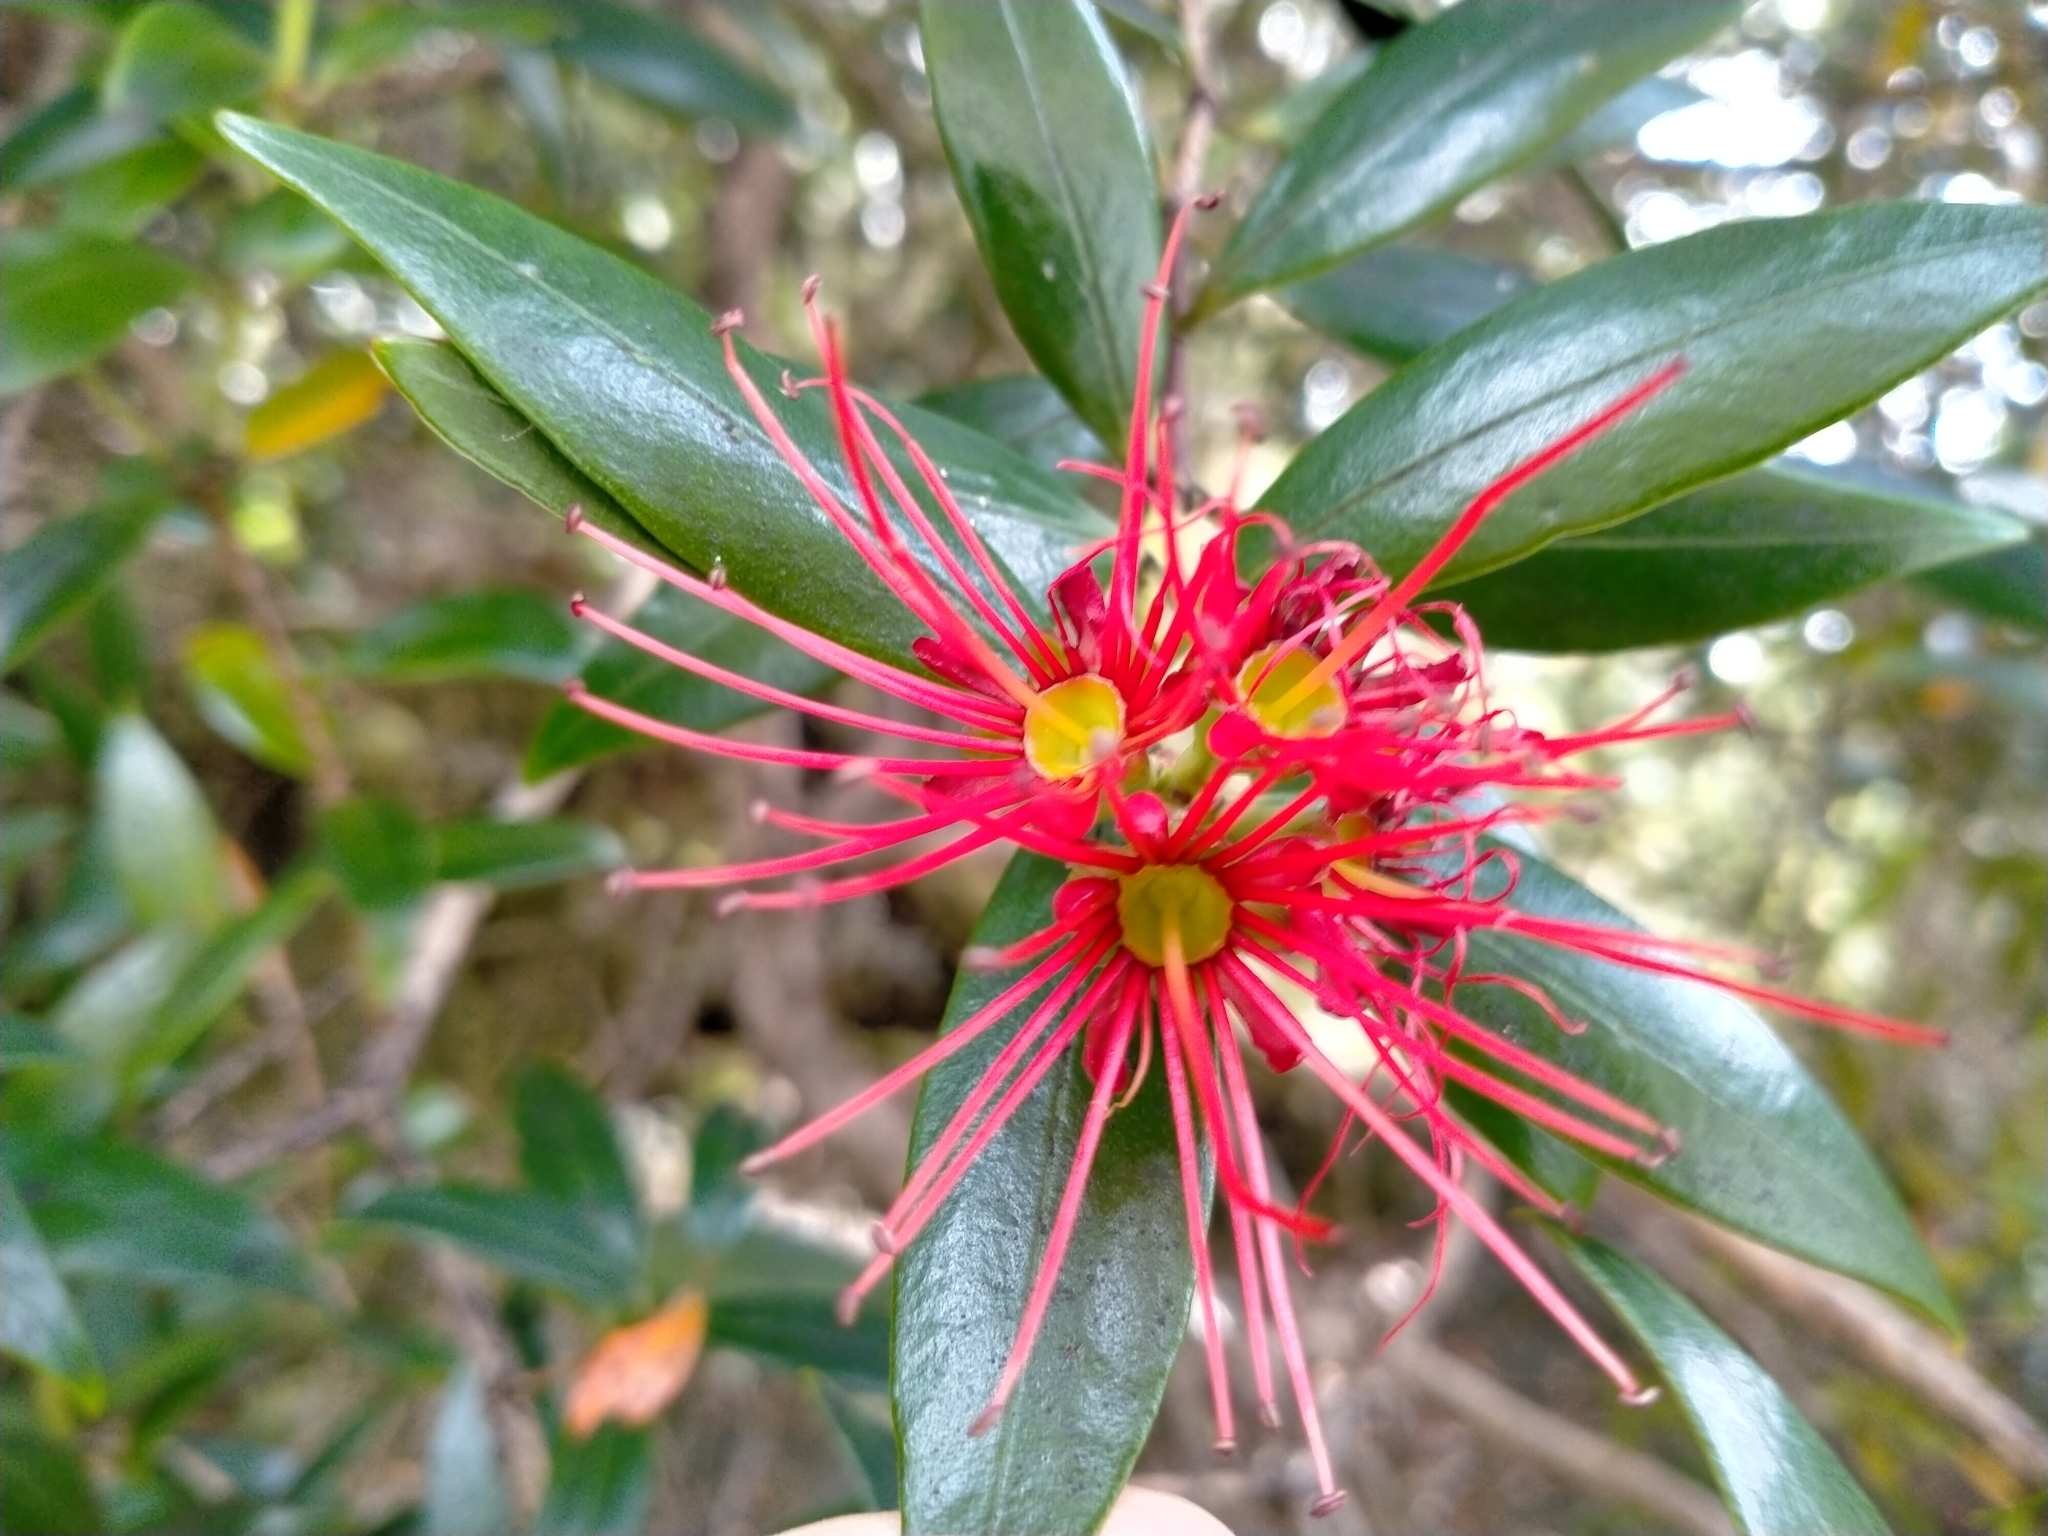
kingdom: Plantae
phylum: Tracheophyta
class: Magnoliopsida
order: Myrtales
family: Myrtaceae
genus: Metrosideros
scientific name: Metrosideros umbellata
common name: Southern rata
